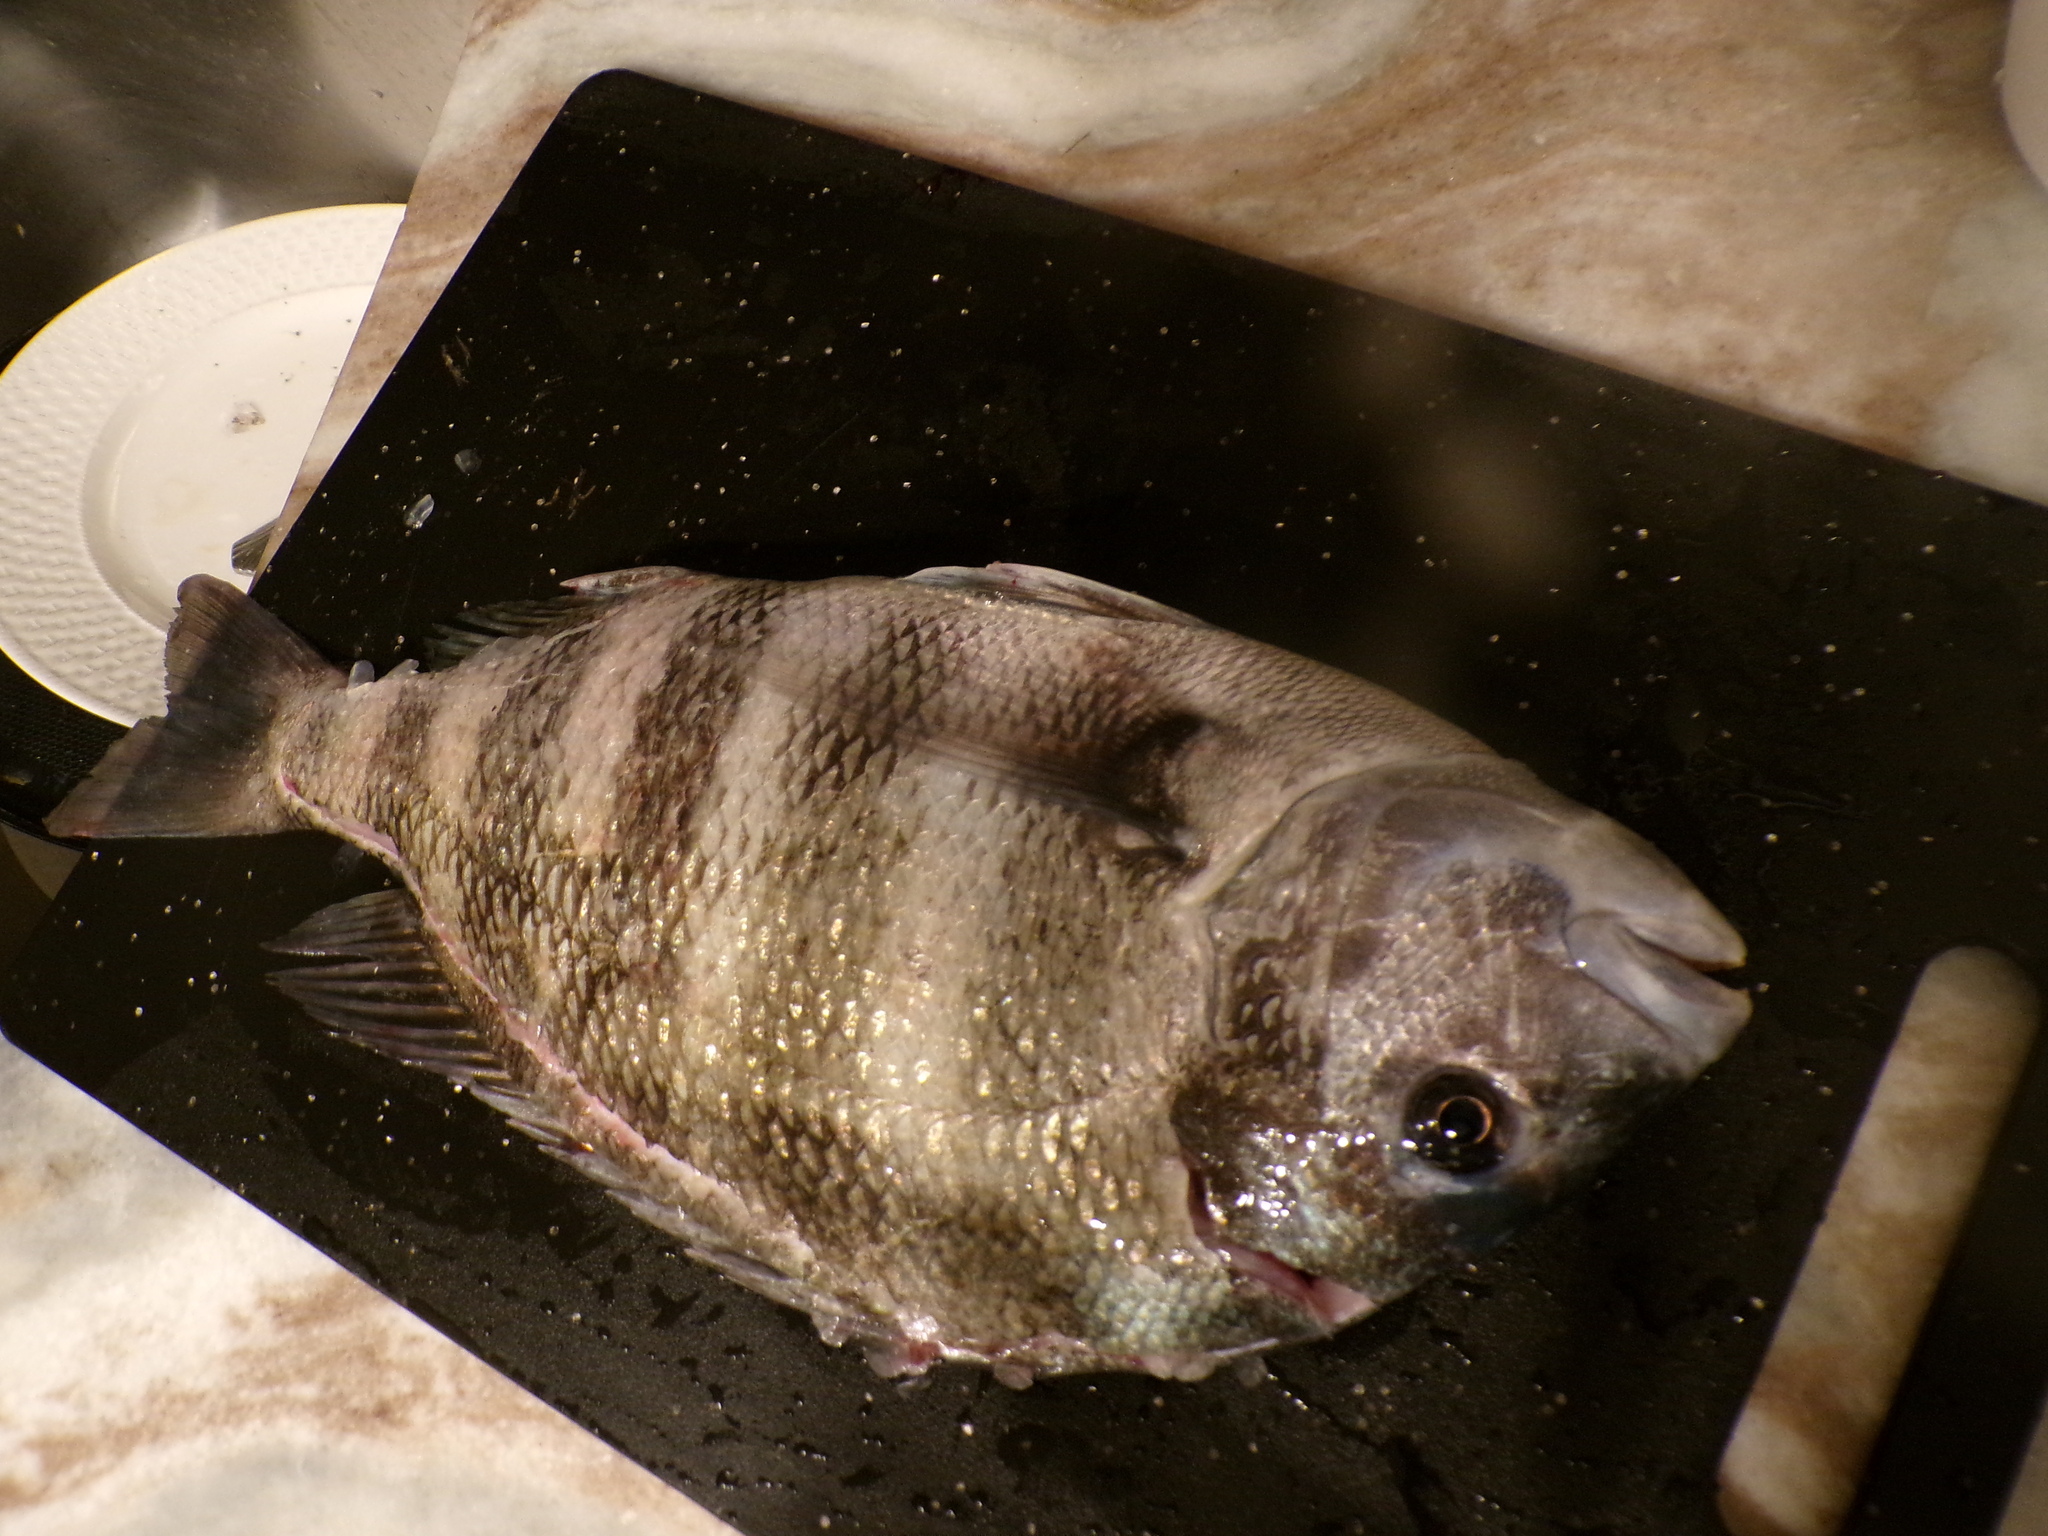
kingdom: Animalia
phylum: Chordata
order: Perciformes
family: Sparidae
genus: Archosargus
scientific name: Archosargus probatocephalus
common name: Sheepshead
